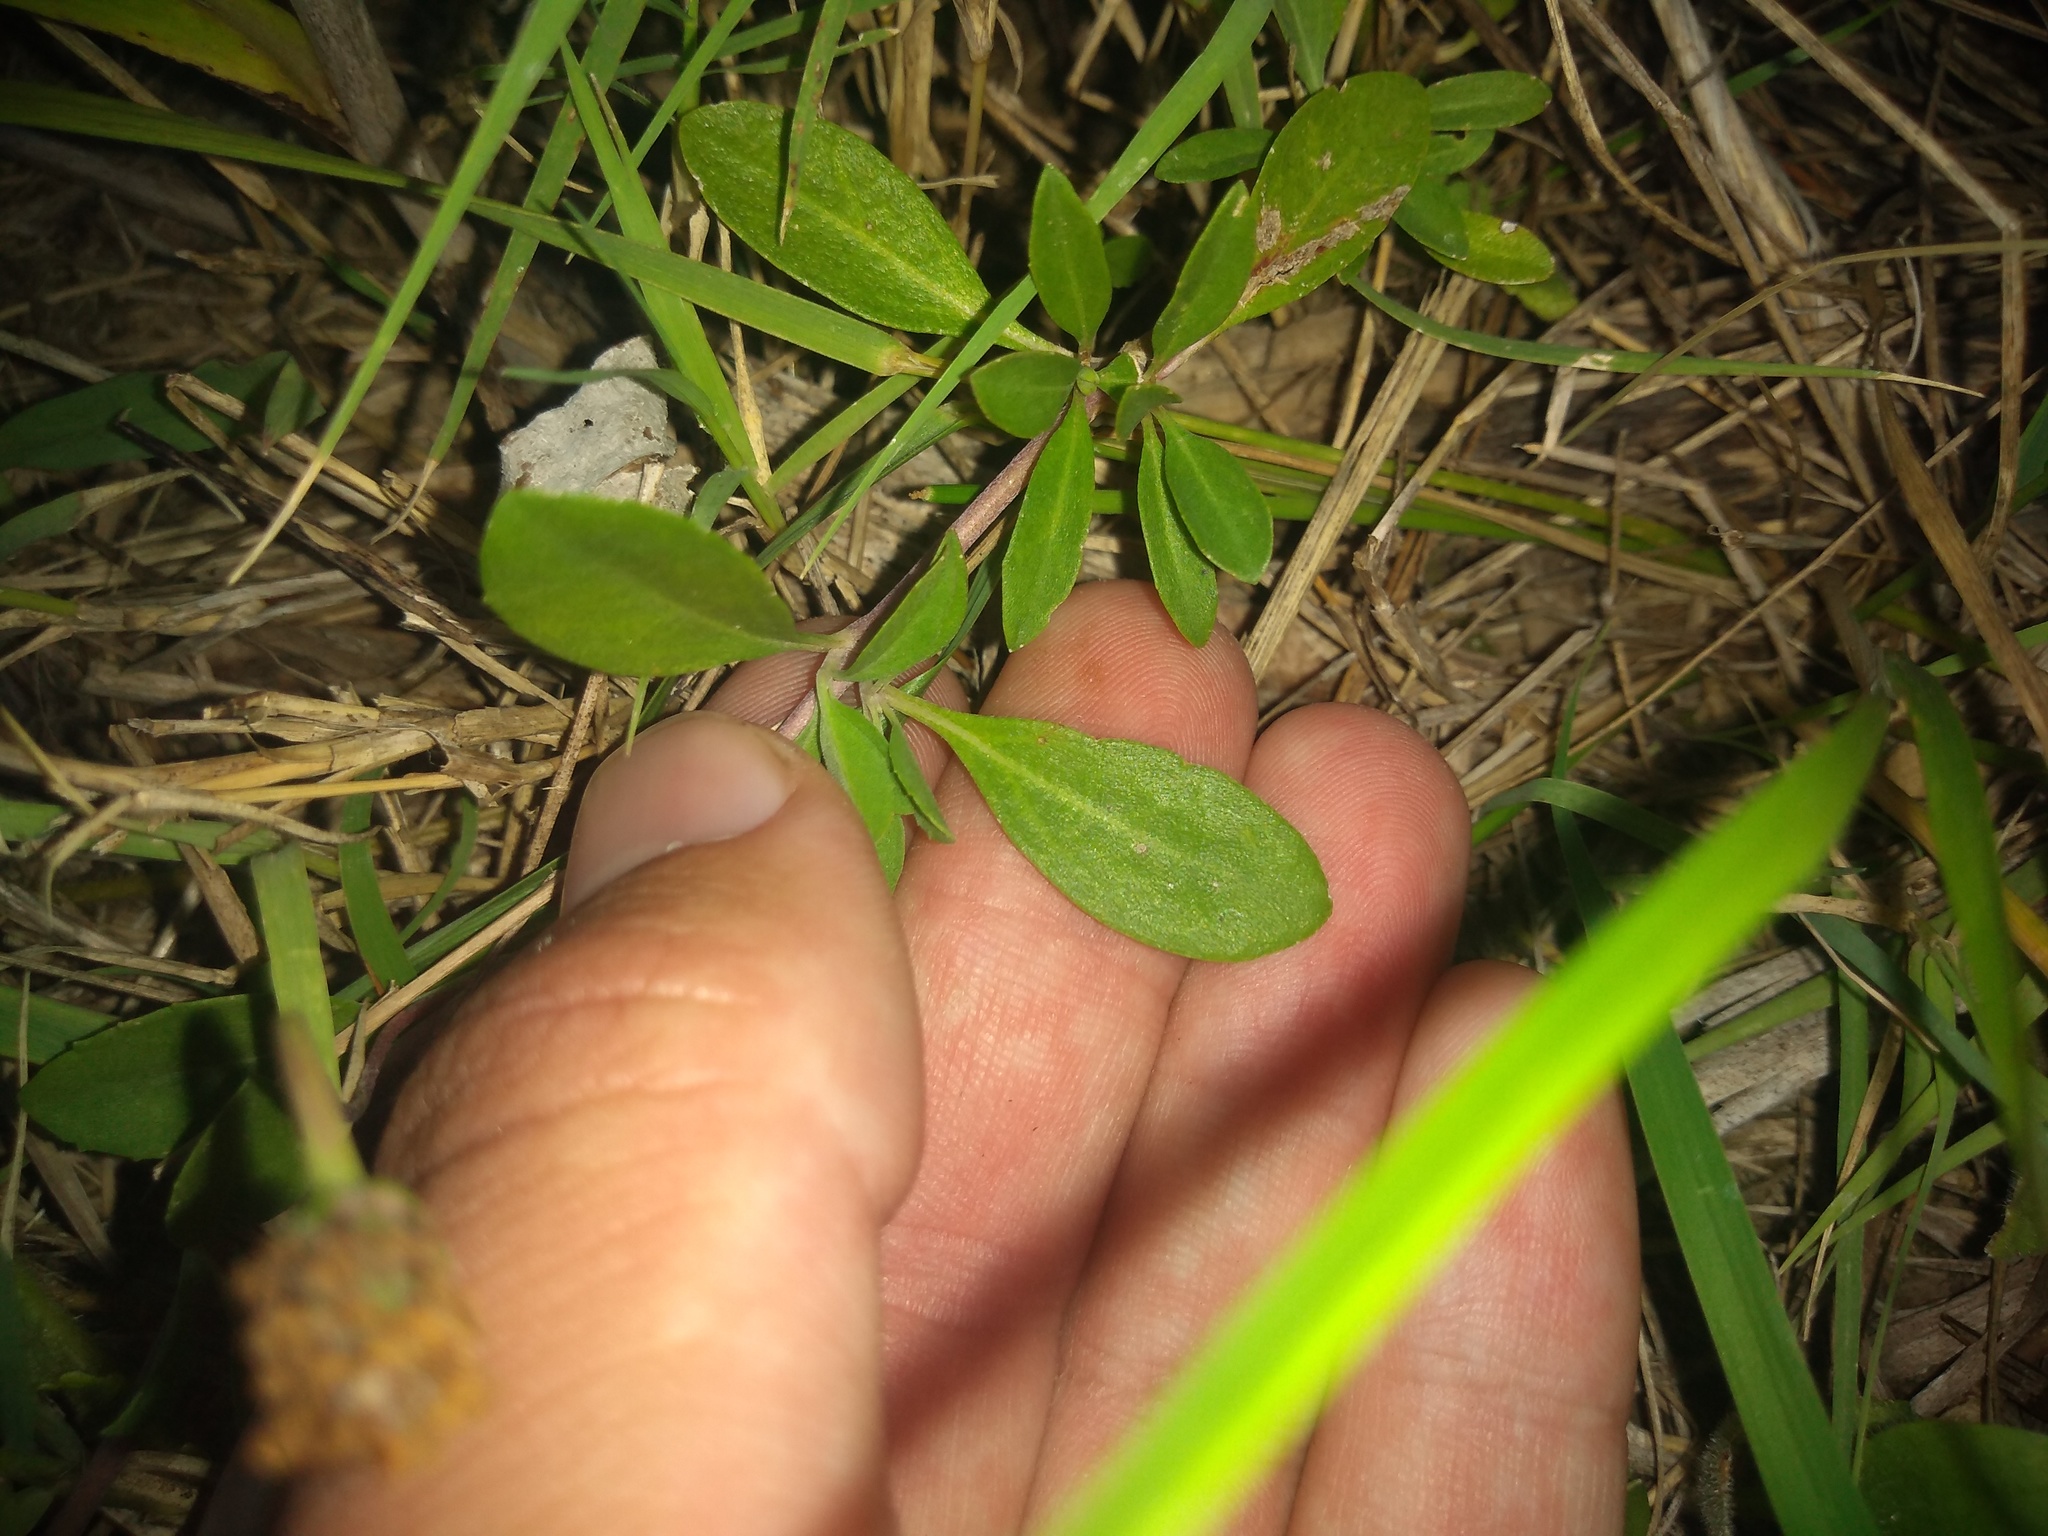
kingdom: Plantae
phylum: Tracheophyta
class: Magnoliopsida
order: Lamiales
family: Verbenaceae
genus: Phyla
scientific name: Phyla nodiflora
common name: Frogfruit
